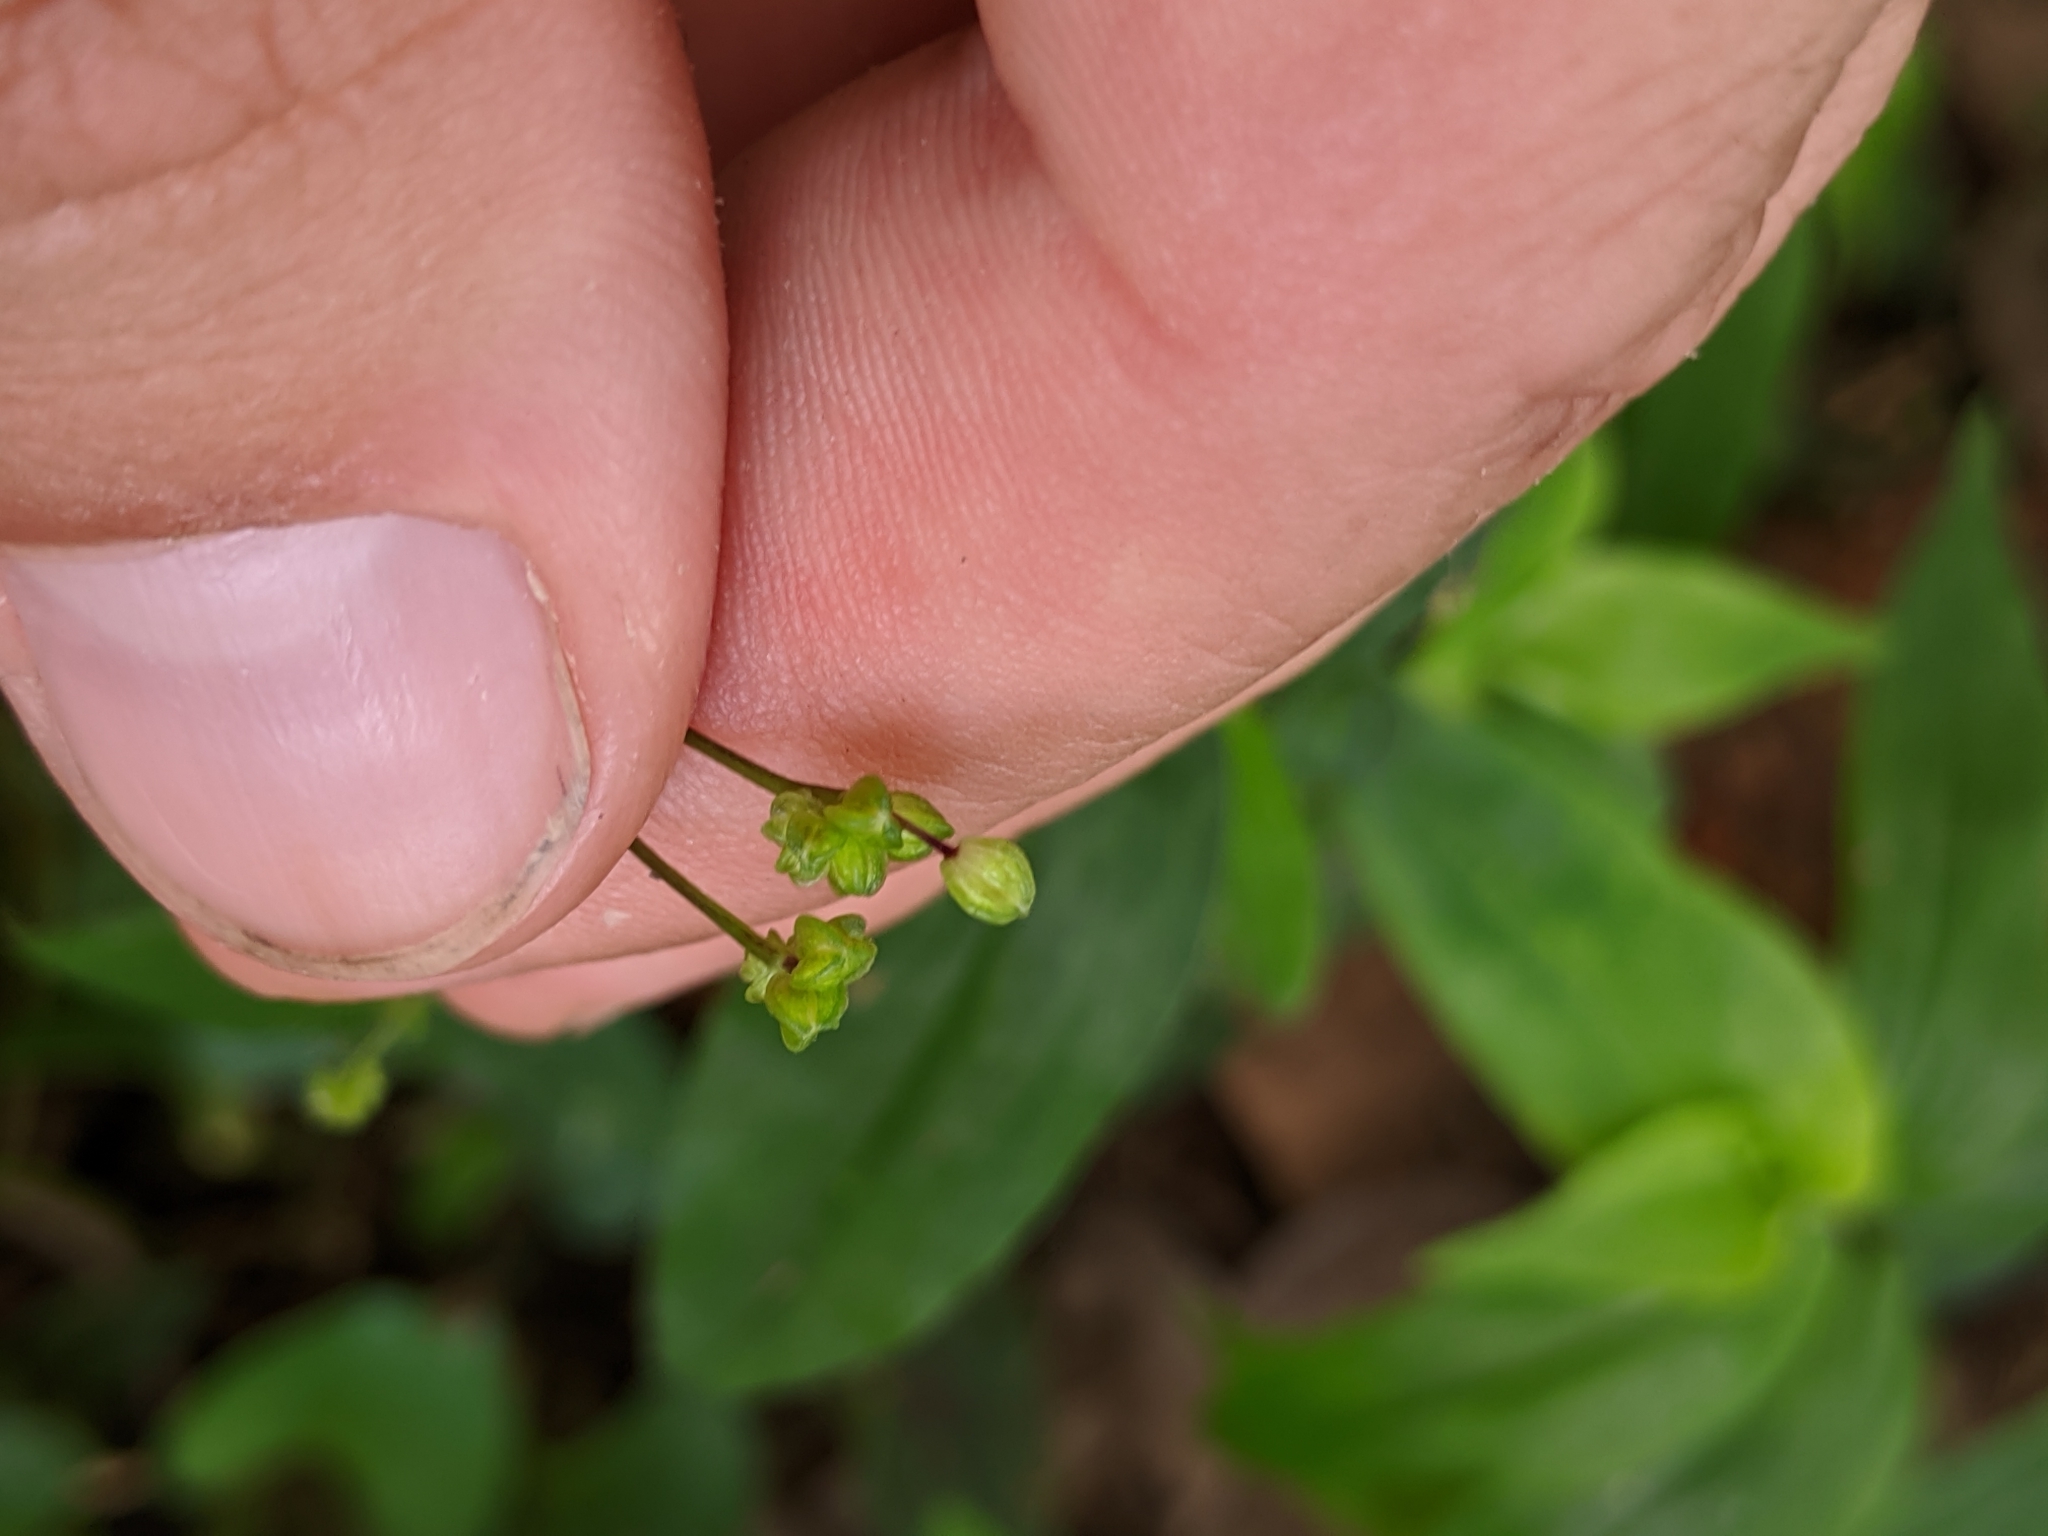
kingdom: Plantae
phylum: Tracheophyta
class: Liliopsida
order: Commelinales
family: Commelinaceae
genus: Gibasis
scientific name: Gibasis pellucida
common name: Dotted bridalveil
